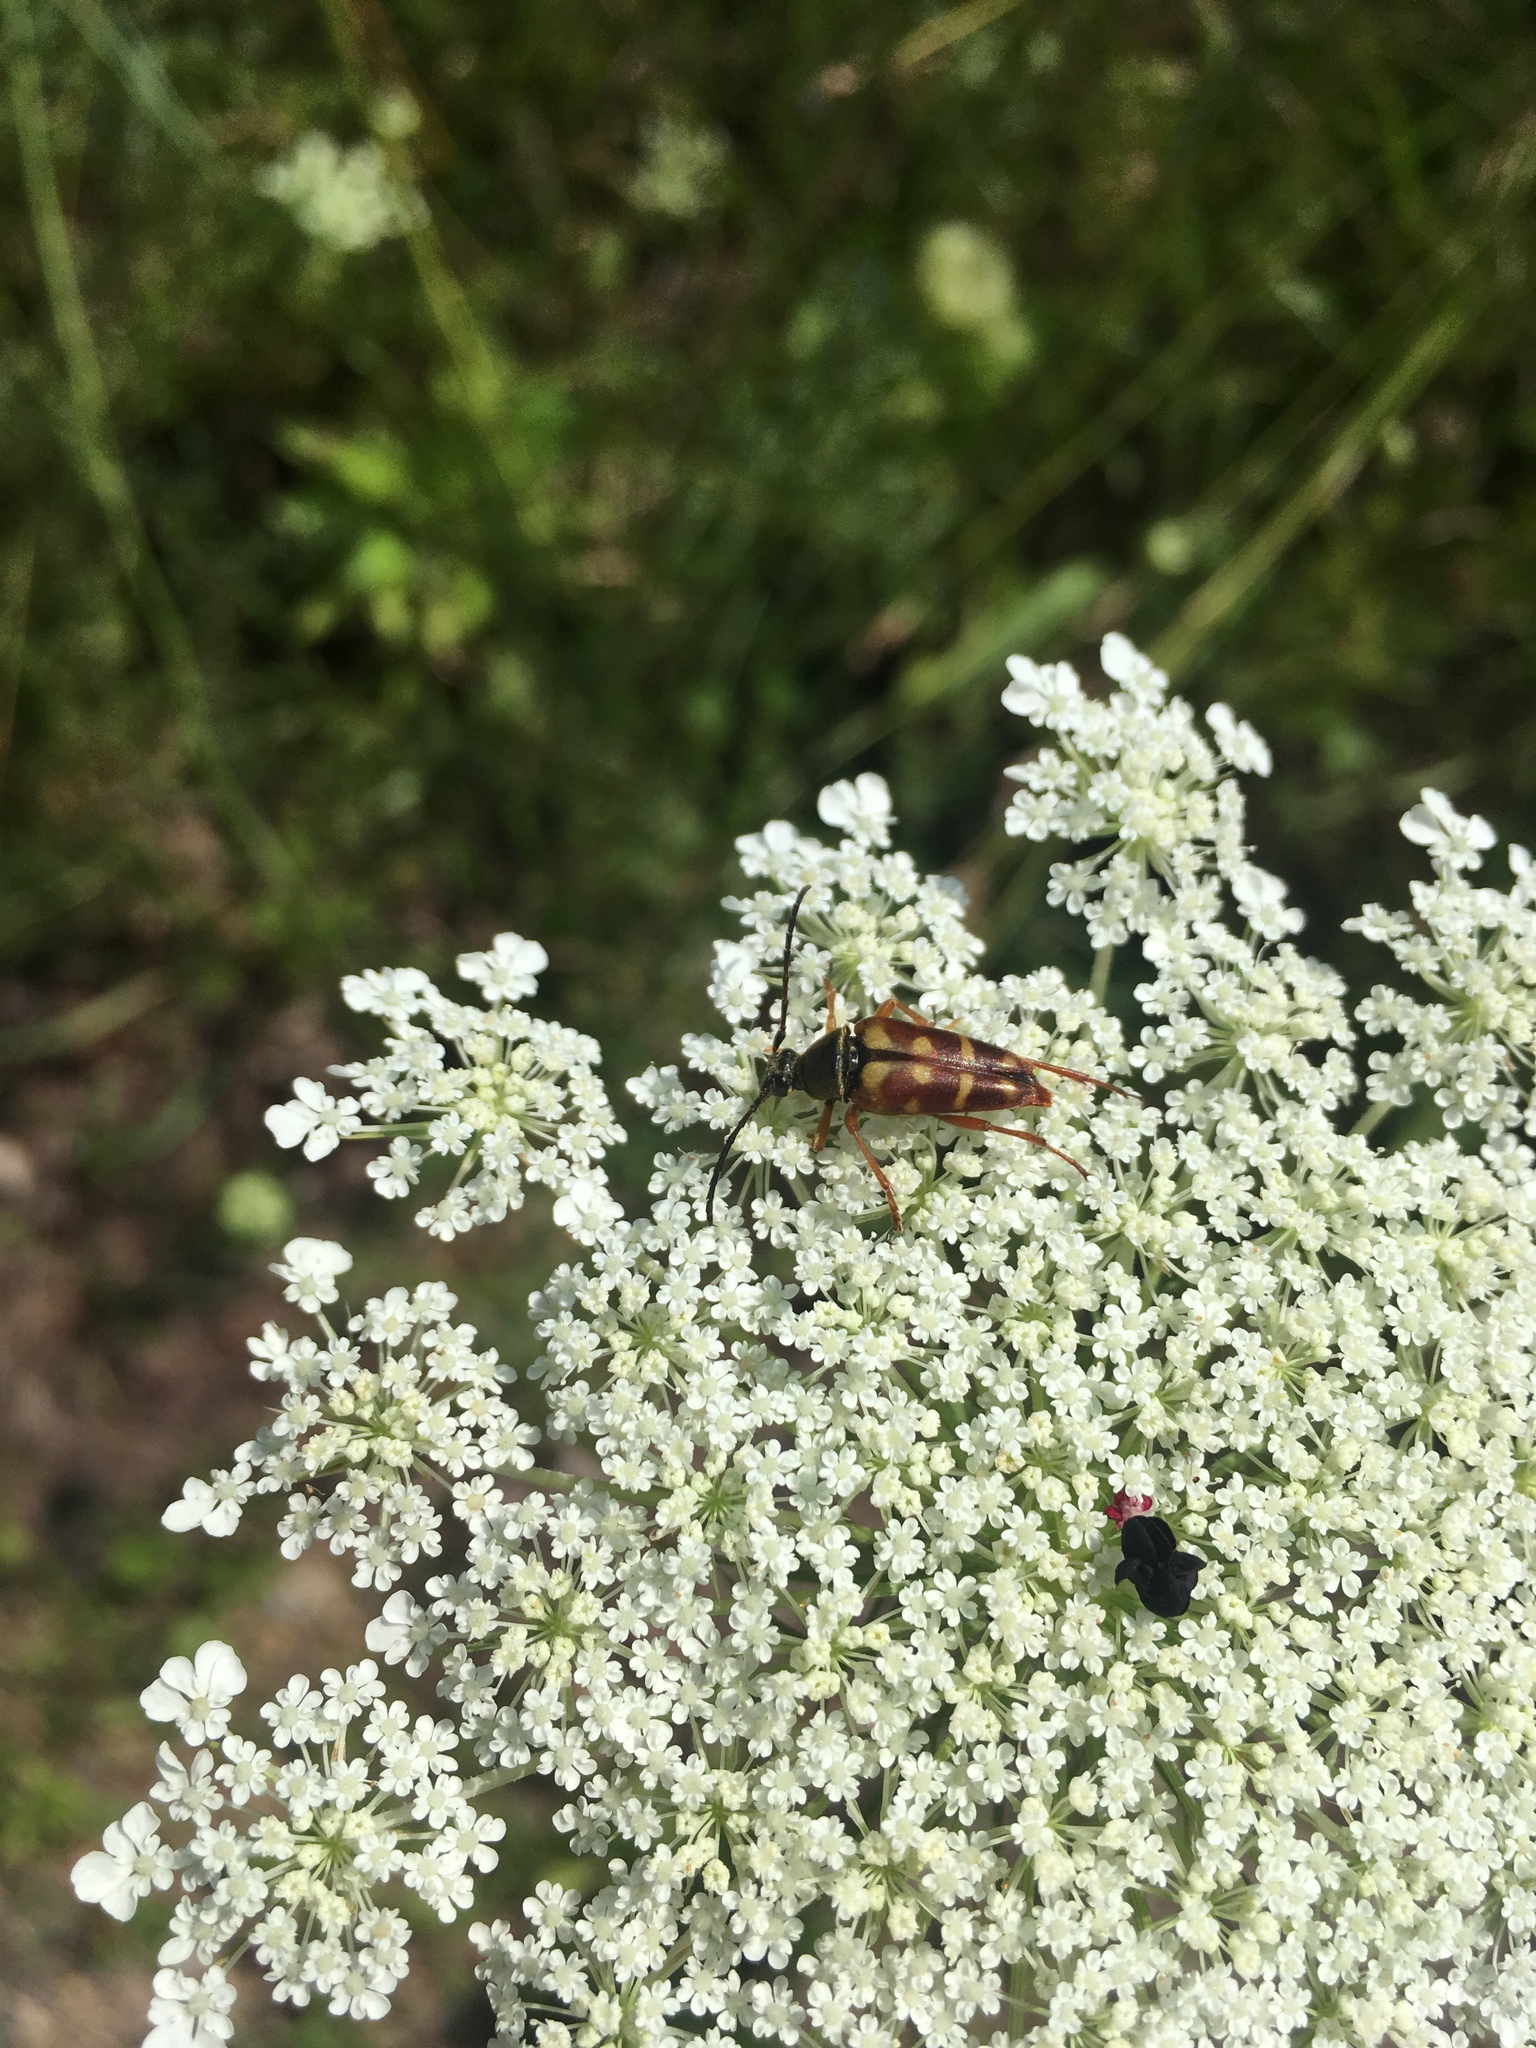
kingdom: Animalia
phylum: Arthropoda
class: Insecta
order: Coleoptera
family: Cerambycidae
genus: Typocerus
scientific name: Typocerus velutinus
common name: Banded longhorn beetle
